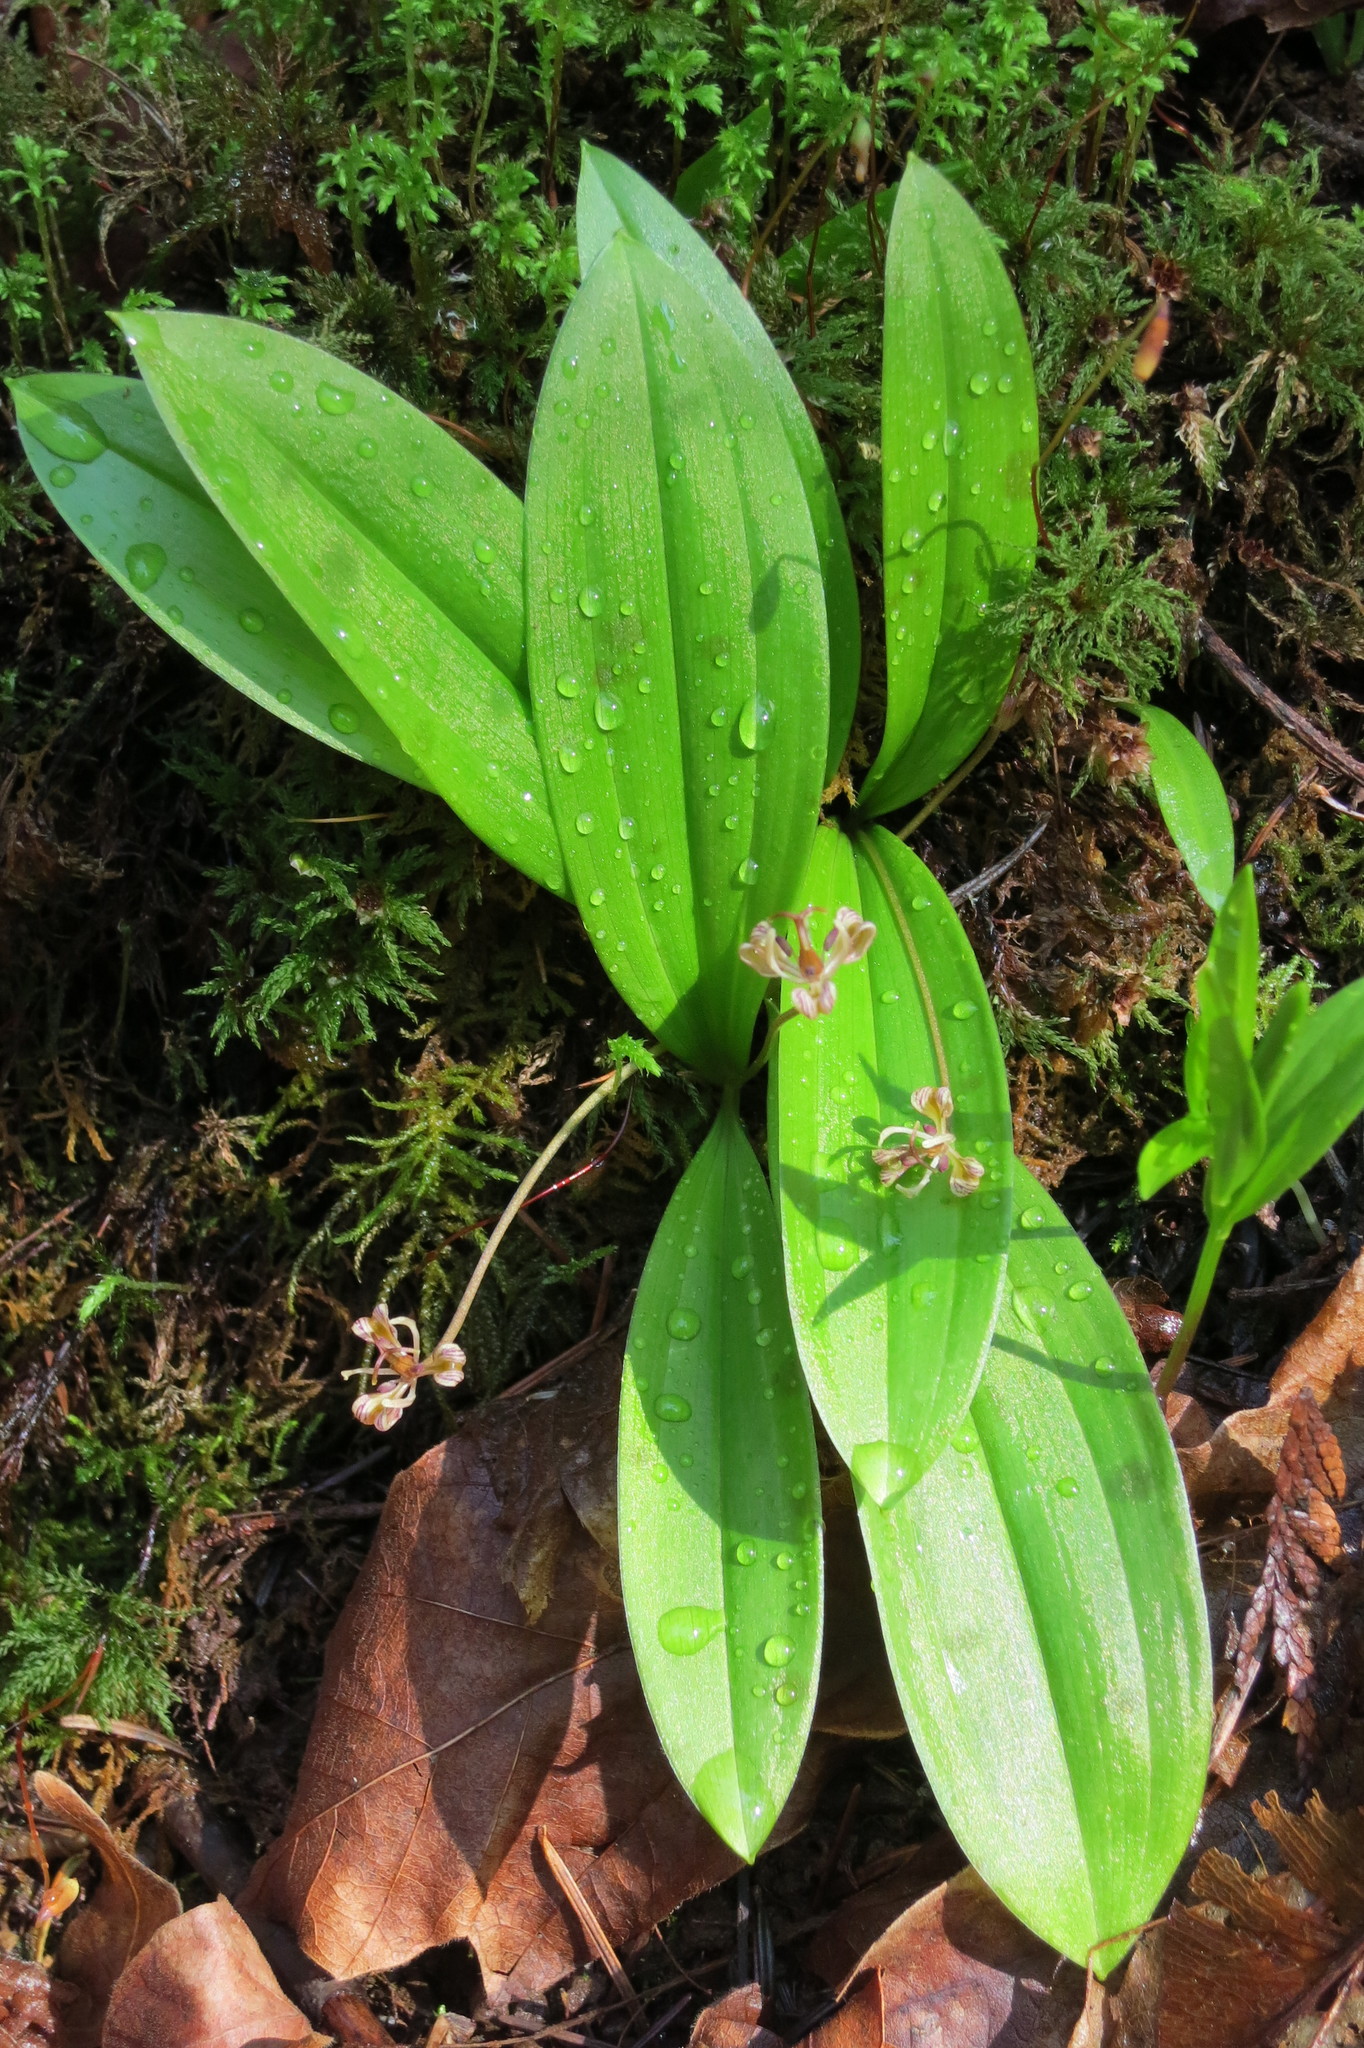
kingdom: Plantae
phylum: Tracheophyta
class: Liliopsida
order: Liliales
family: Liliaceae
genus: Scoliopus
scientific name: Scoliopus hallii
